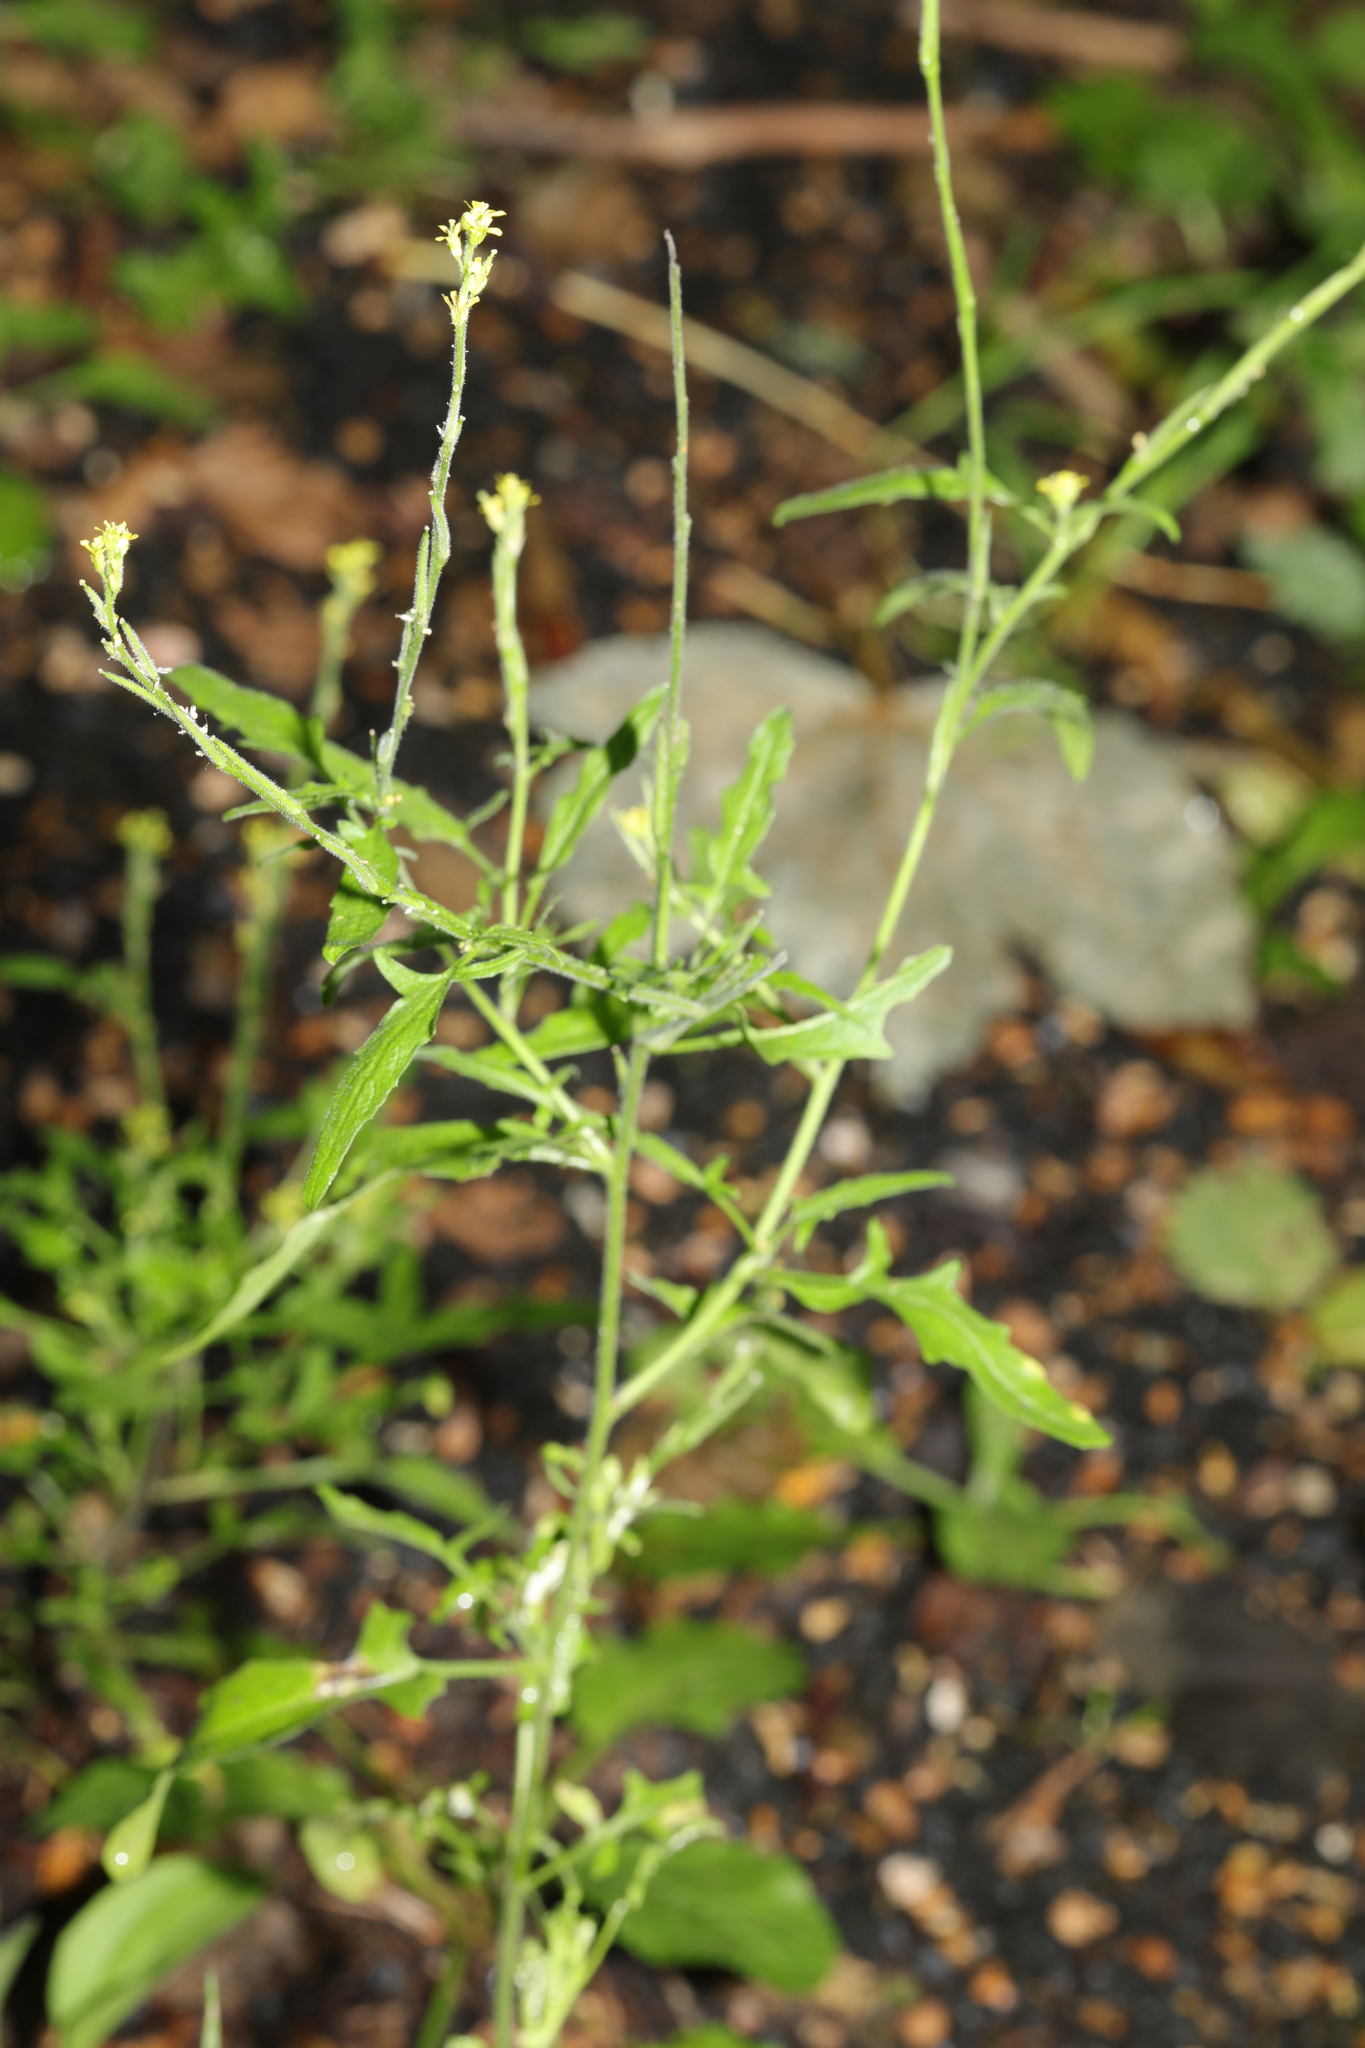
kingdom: Plantae
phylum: Tracheophyta
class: Magnoliopsida
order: Brassicales
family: Brassicaceae
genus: Sisymbrium
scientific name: Sisymbrium officinale
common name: Hedge mustard
